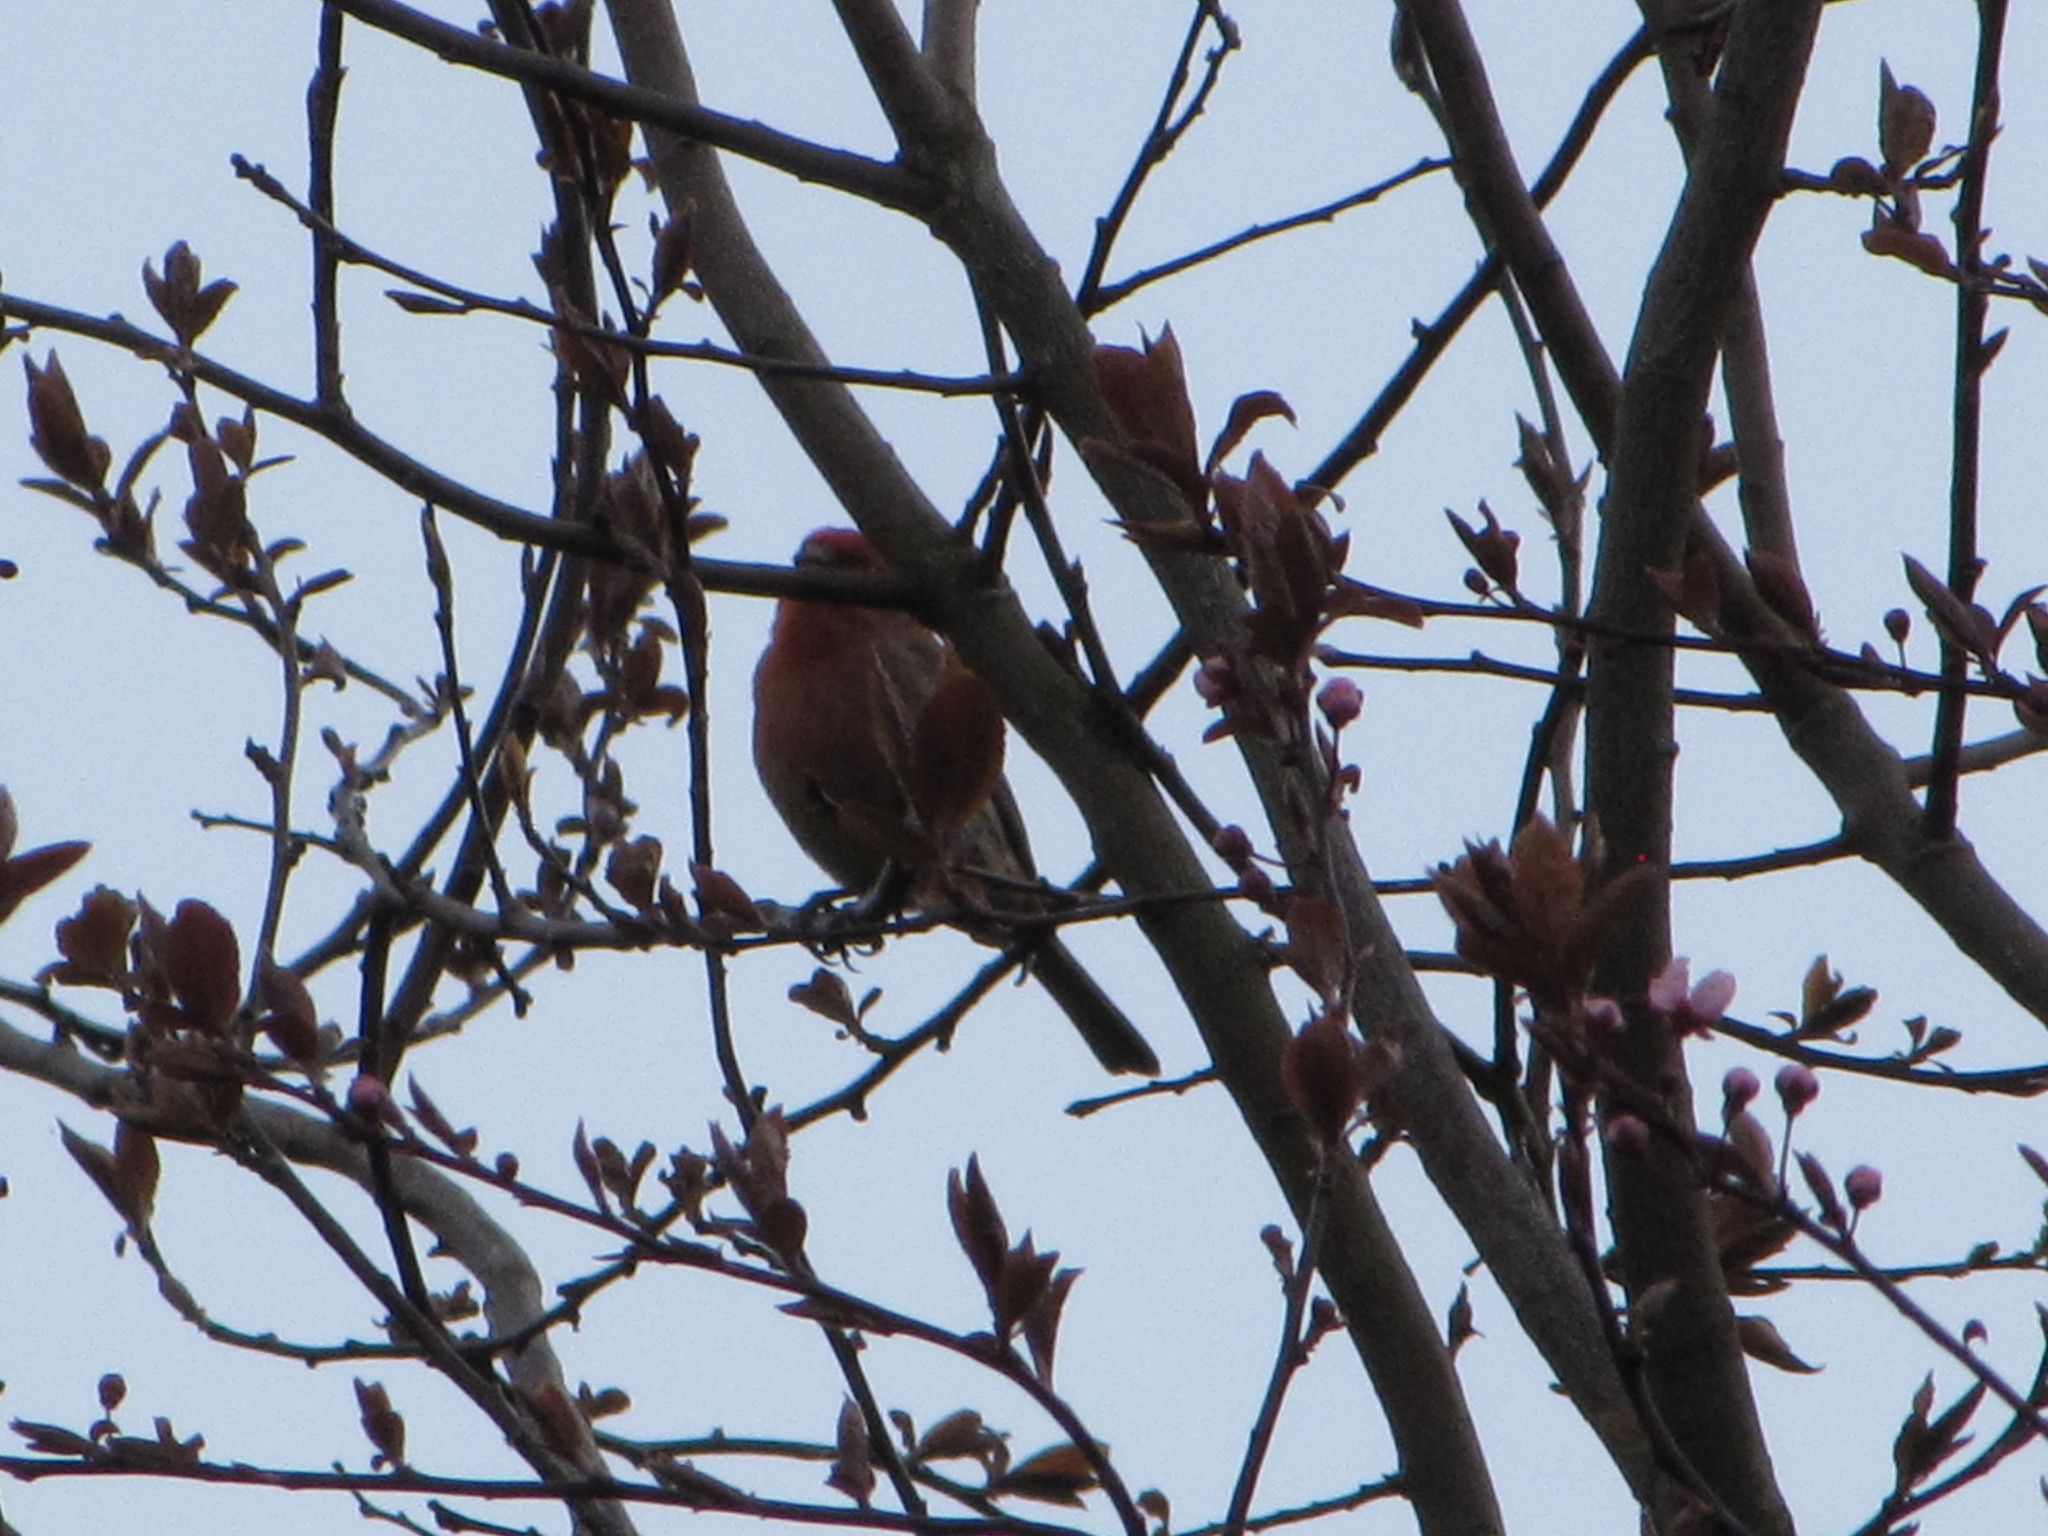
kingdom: Animalia
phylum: Chordata
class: Aves
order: Passeriformes
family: Fringillidae
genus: Haemorhous
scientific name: Haemorhous mexicanus
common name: House finch
